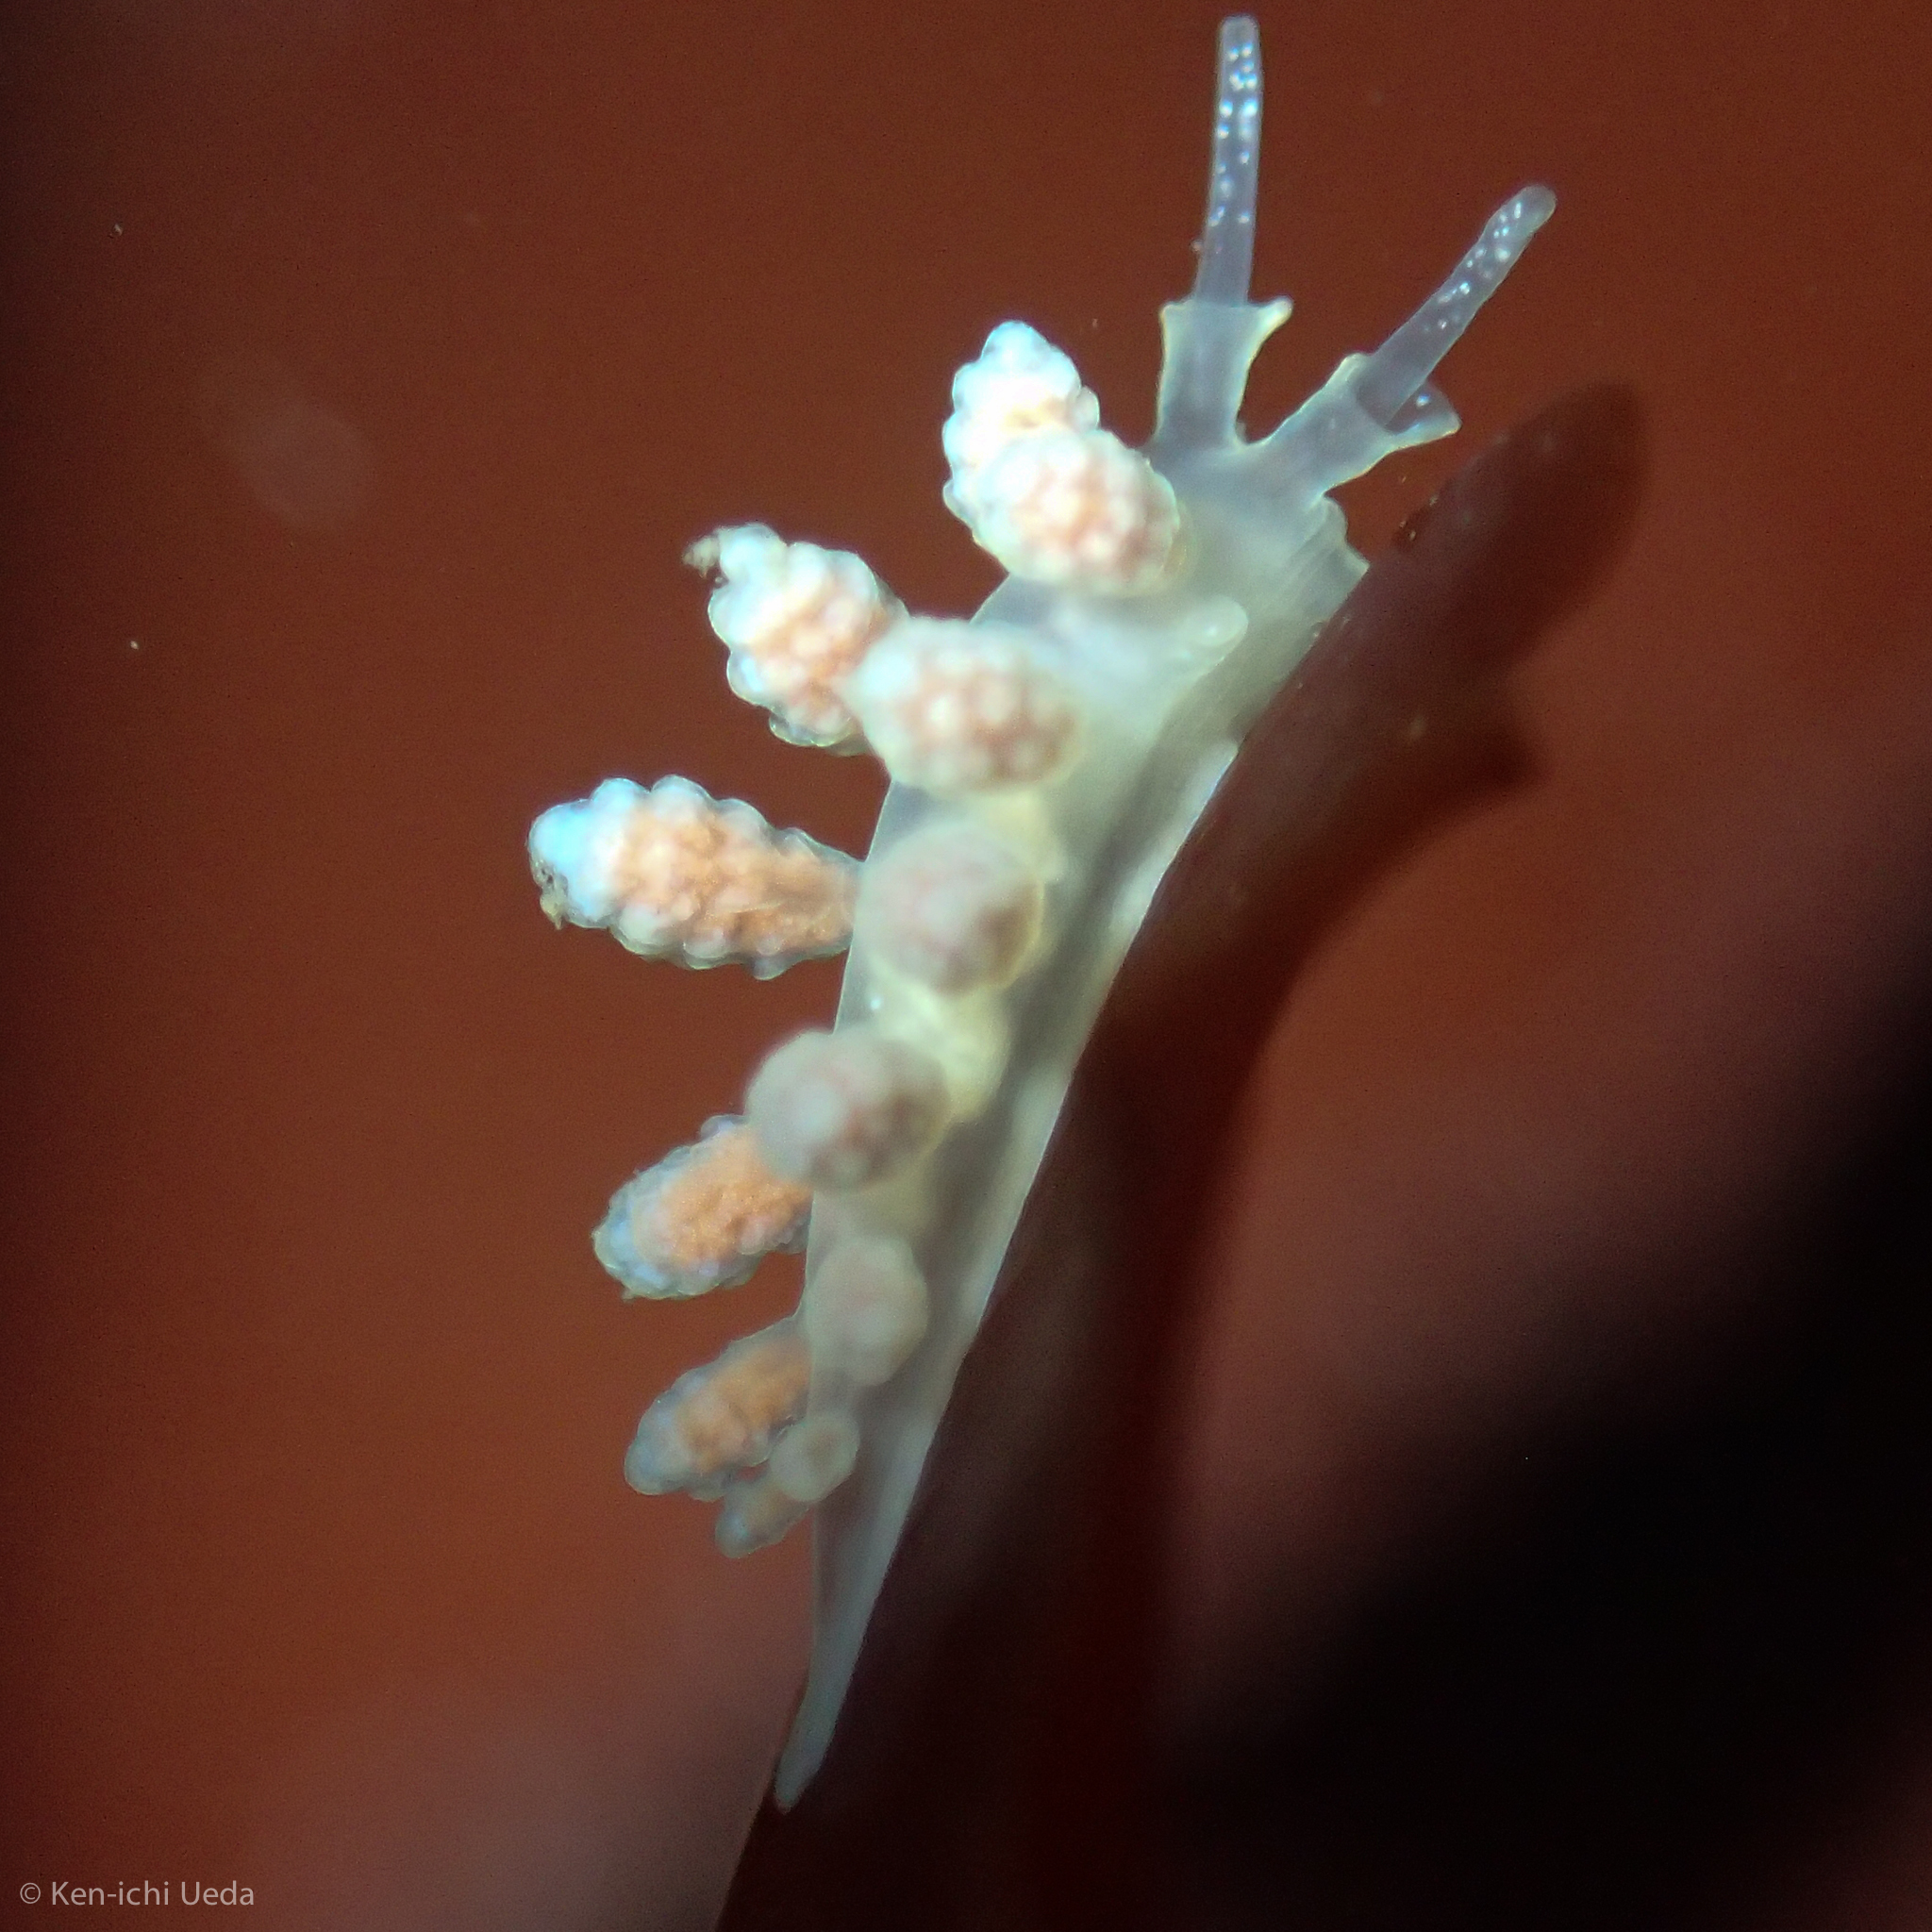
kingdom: Animalia
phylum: Mollusca
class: Gastropoda
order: Nudibranchia
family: Dotidae
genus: Doto
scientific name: Doto amyra
